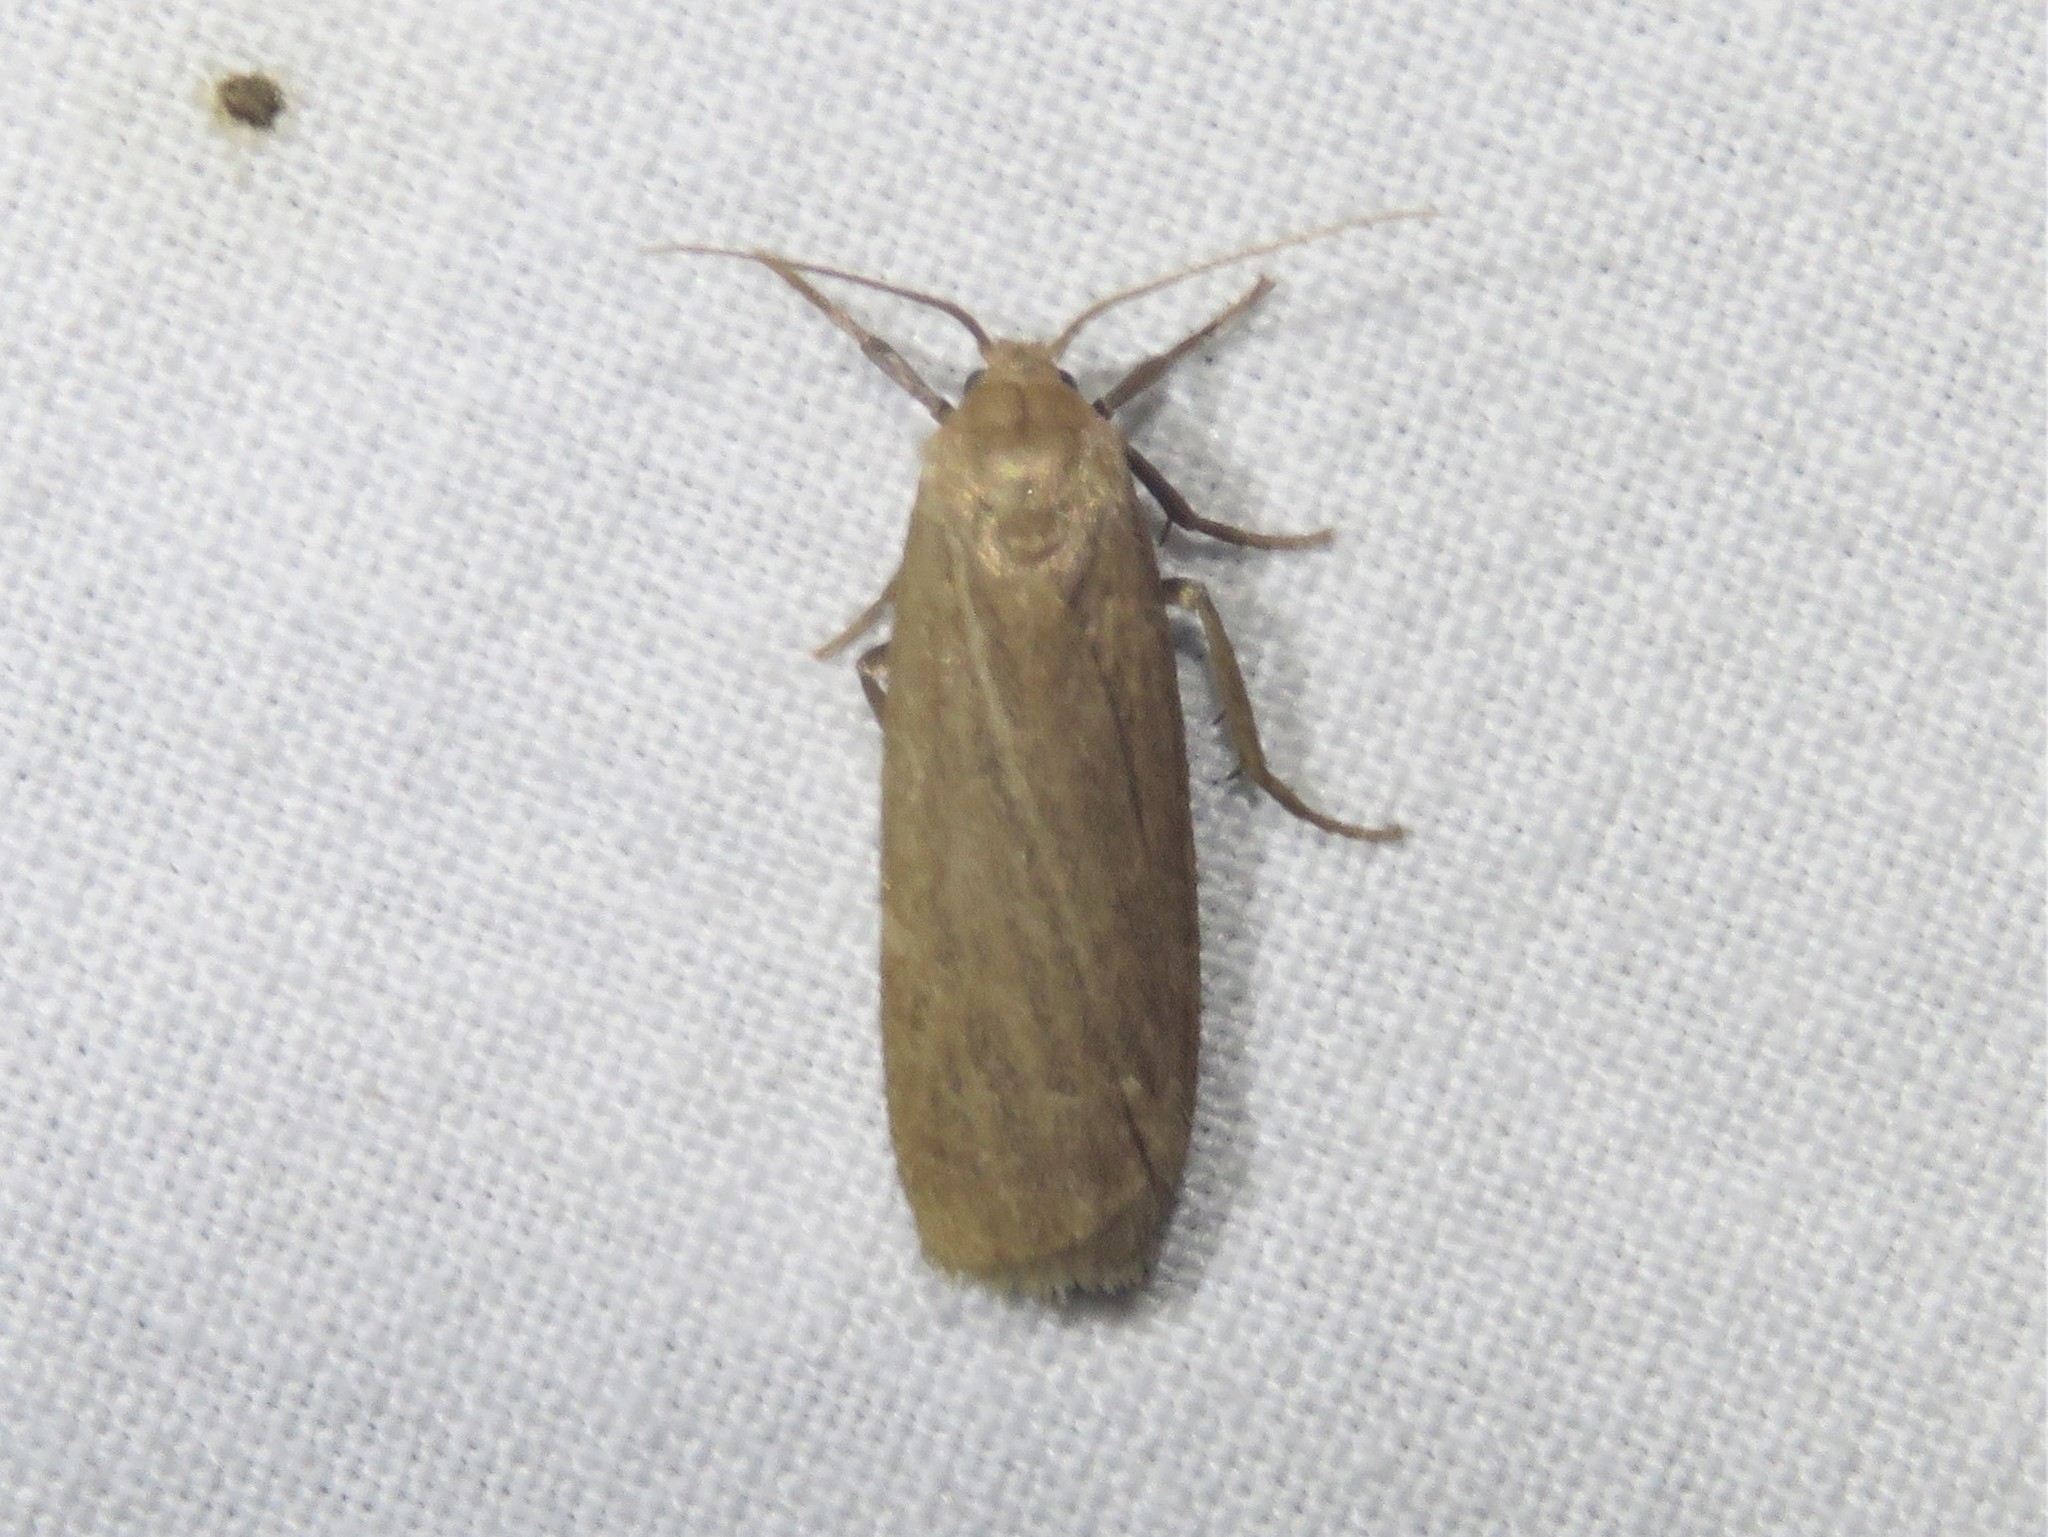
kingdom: Animalia
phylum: Arthropoda
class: Insecta
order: Lepidoptera
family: Erebidae
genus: Crambidia
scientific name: Crambidia pallida
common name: Pale lichen moth
